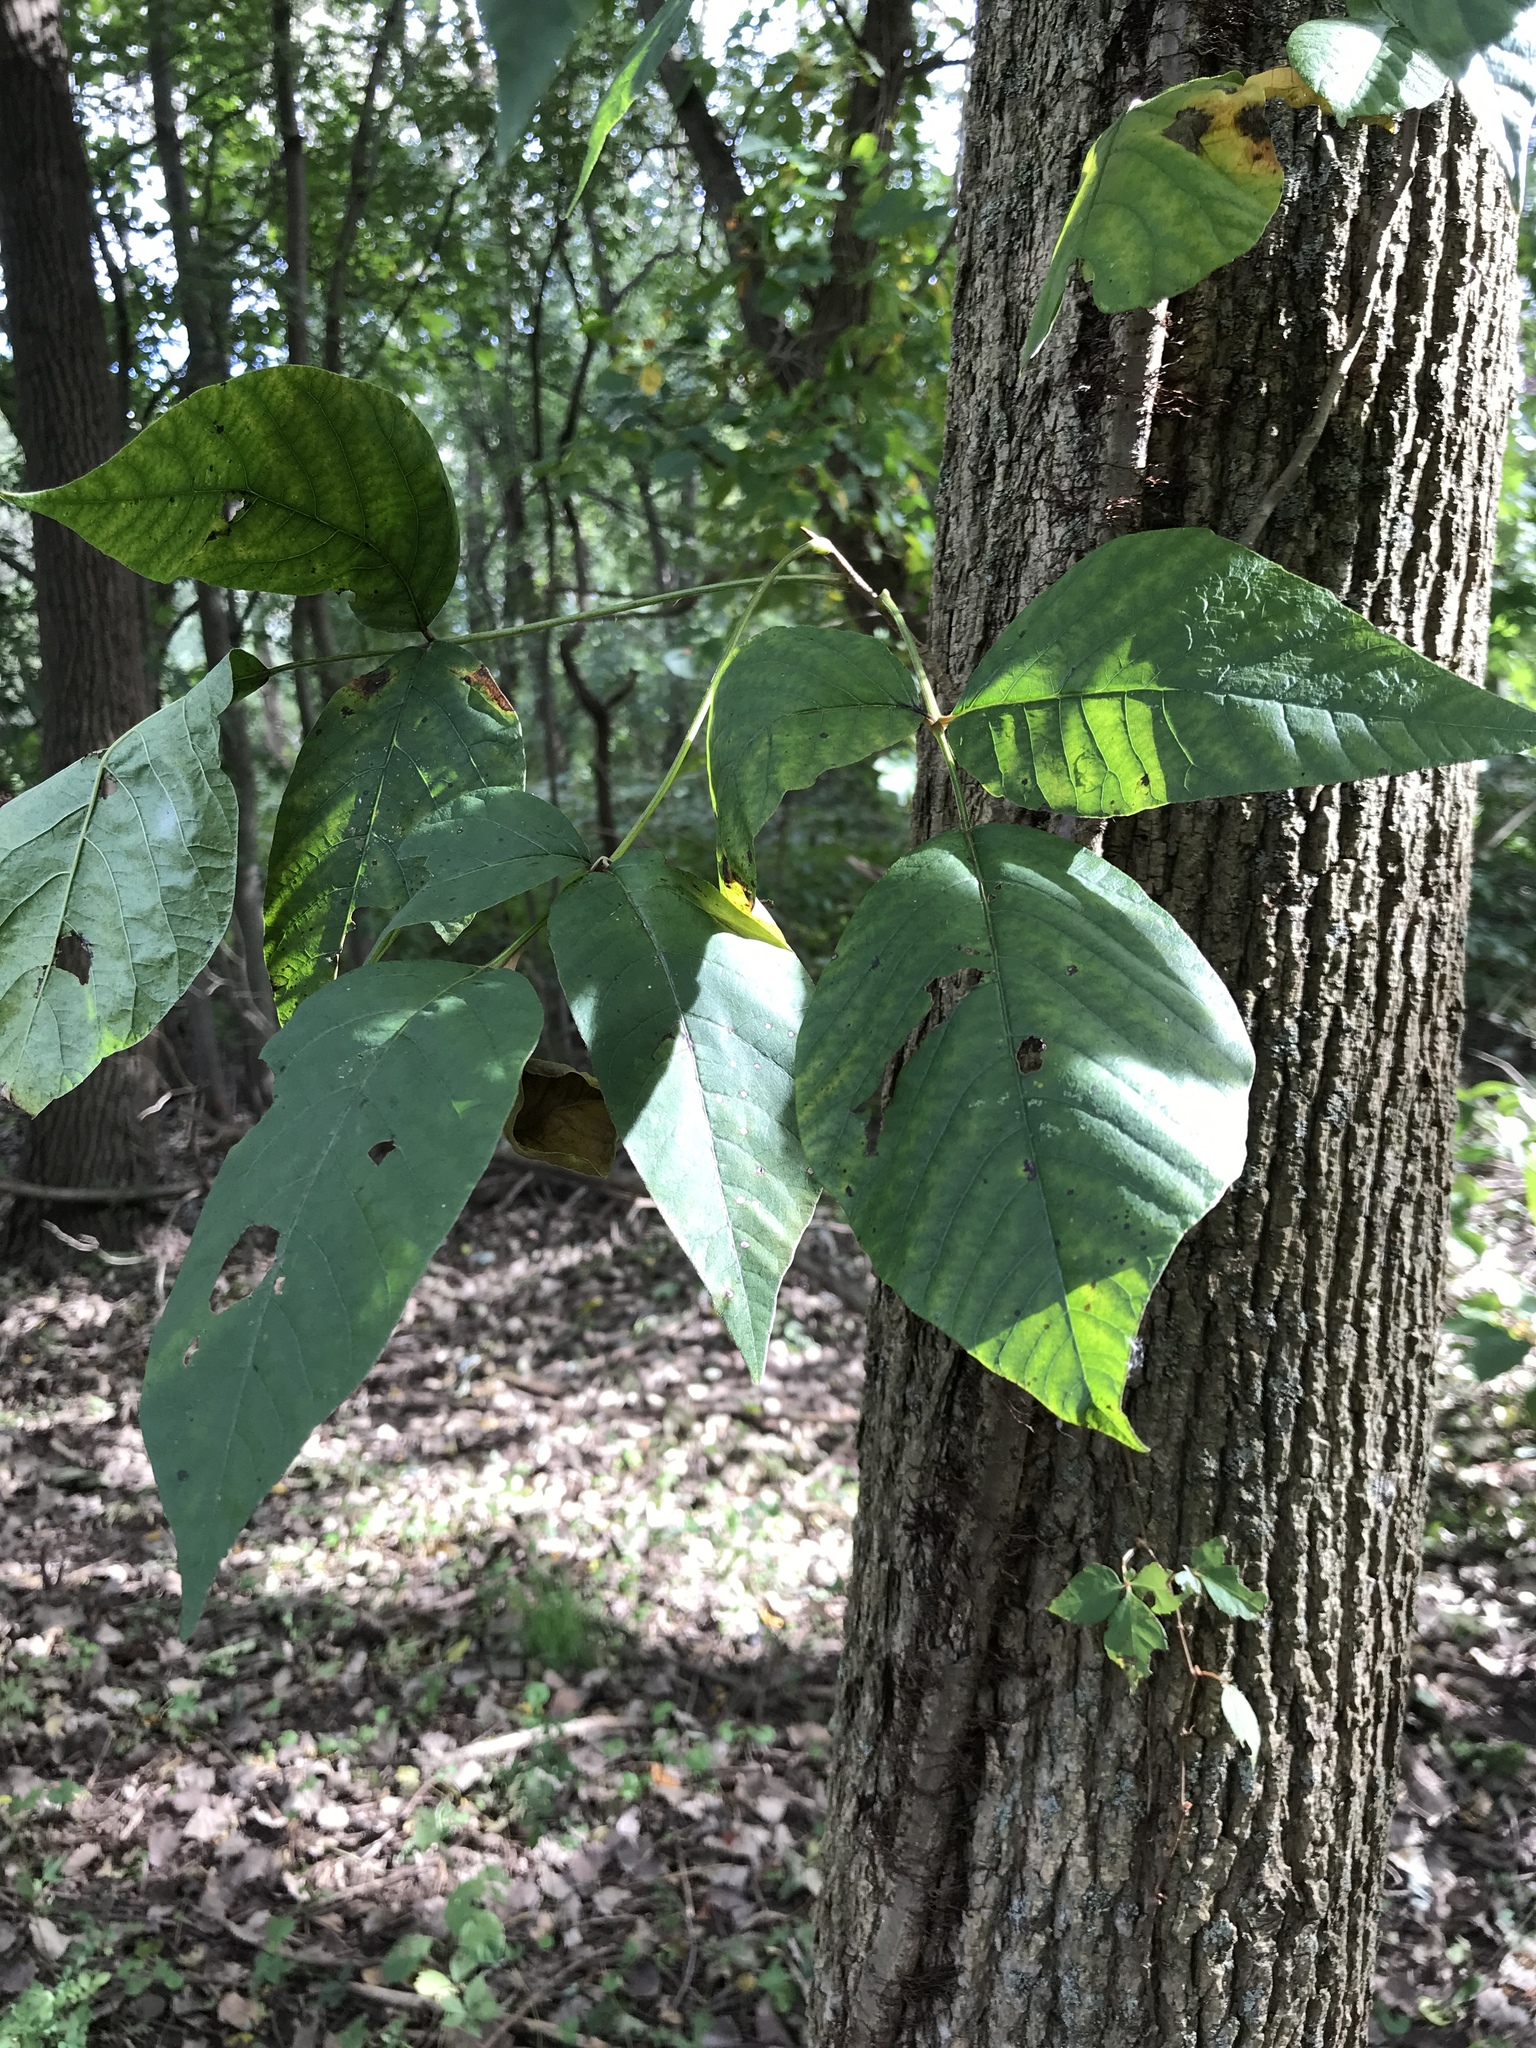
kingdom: Plantae
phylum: Tracheophyta
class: Magnoliopsida
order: Sapindales
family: Anacardiaceae
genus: Toxicodendron
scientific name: Toxicodendron radicans
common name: Poison ivy
